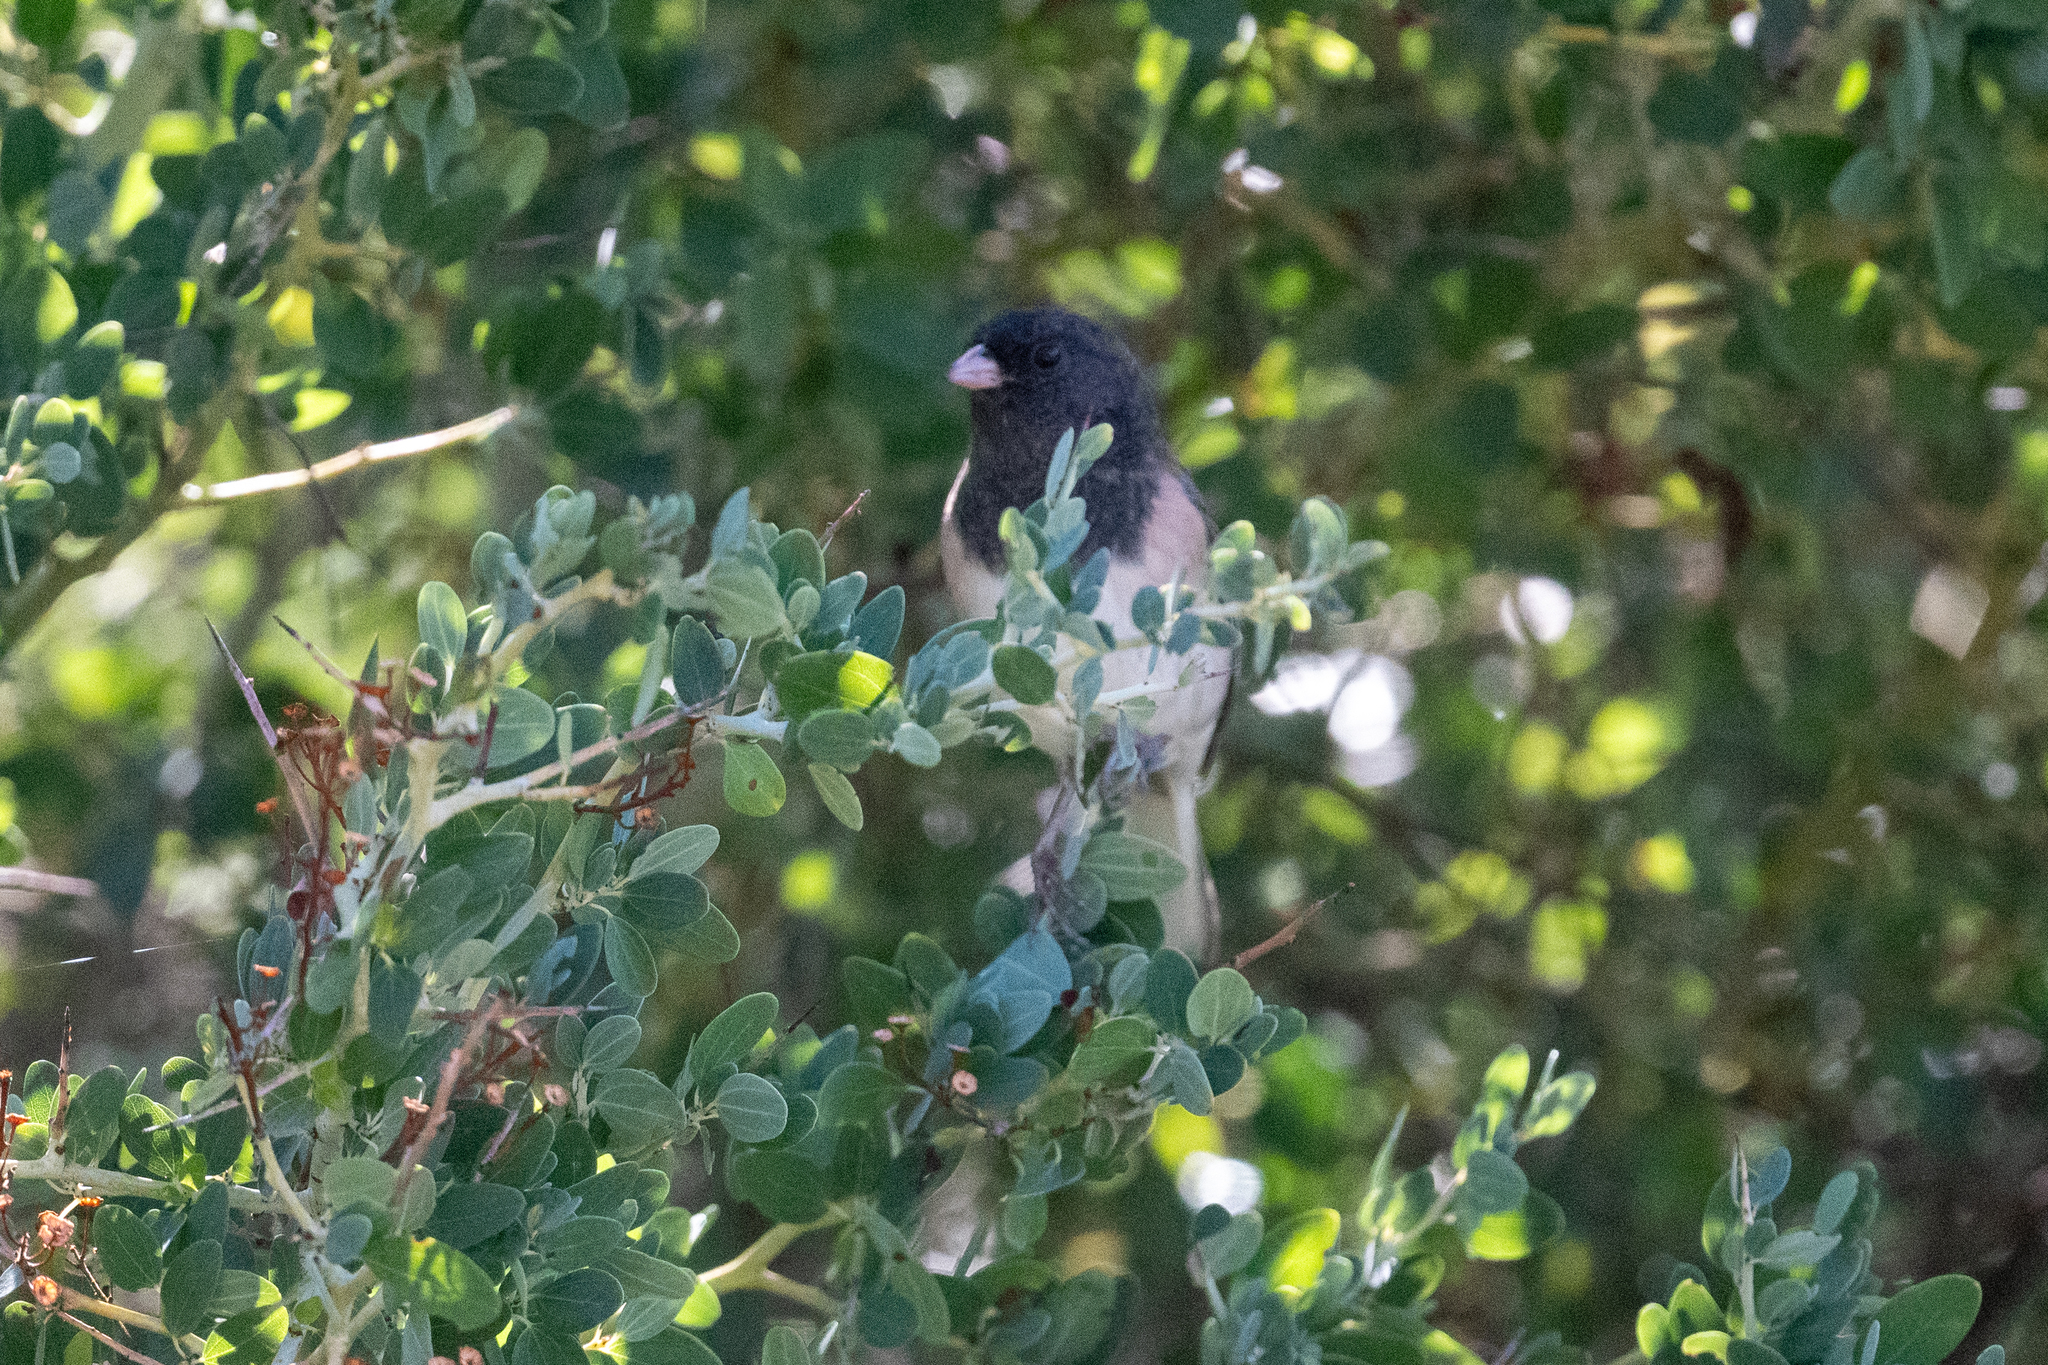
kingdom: Animalia
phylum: Chordata
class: Aves
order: Passeriformes
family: Passerellidae
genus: Junco
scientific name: Junco hyemalis
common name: Dark-eyed junco
